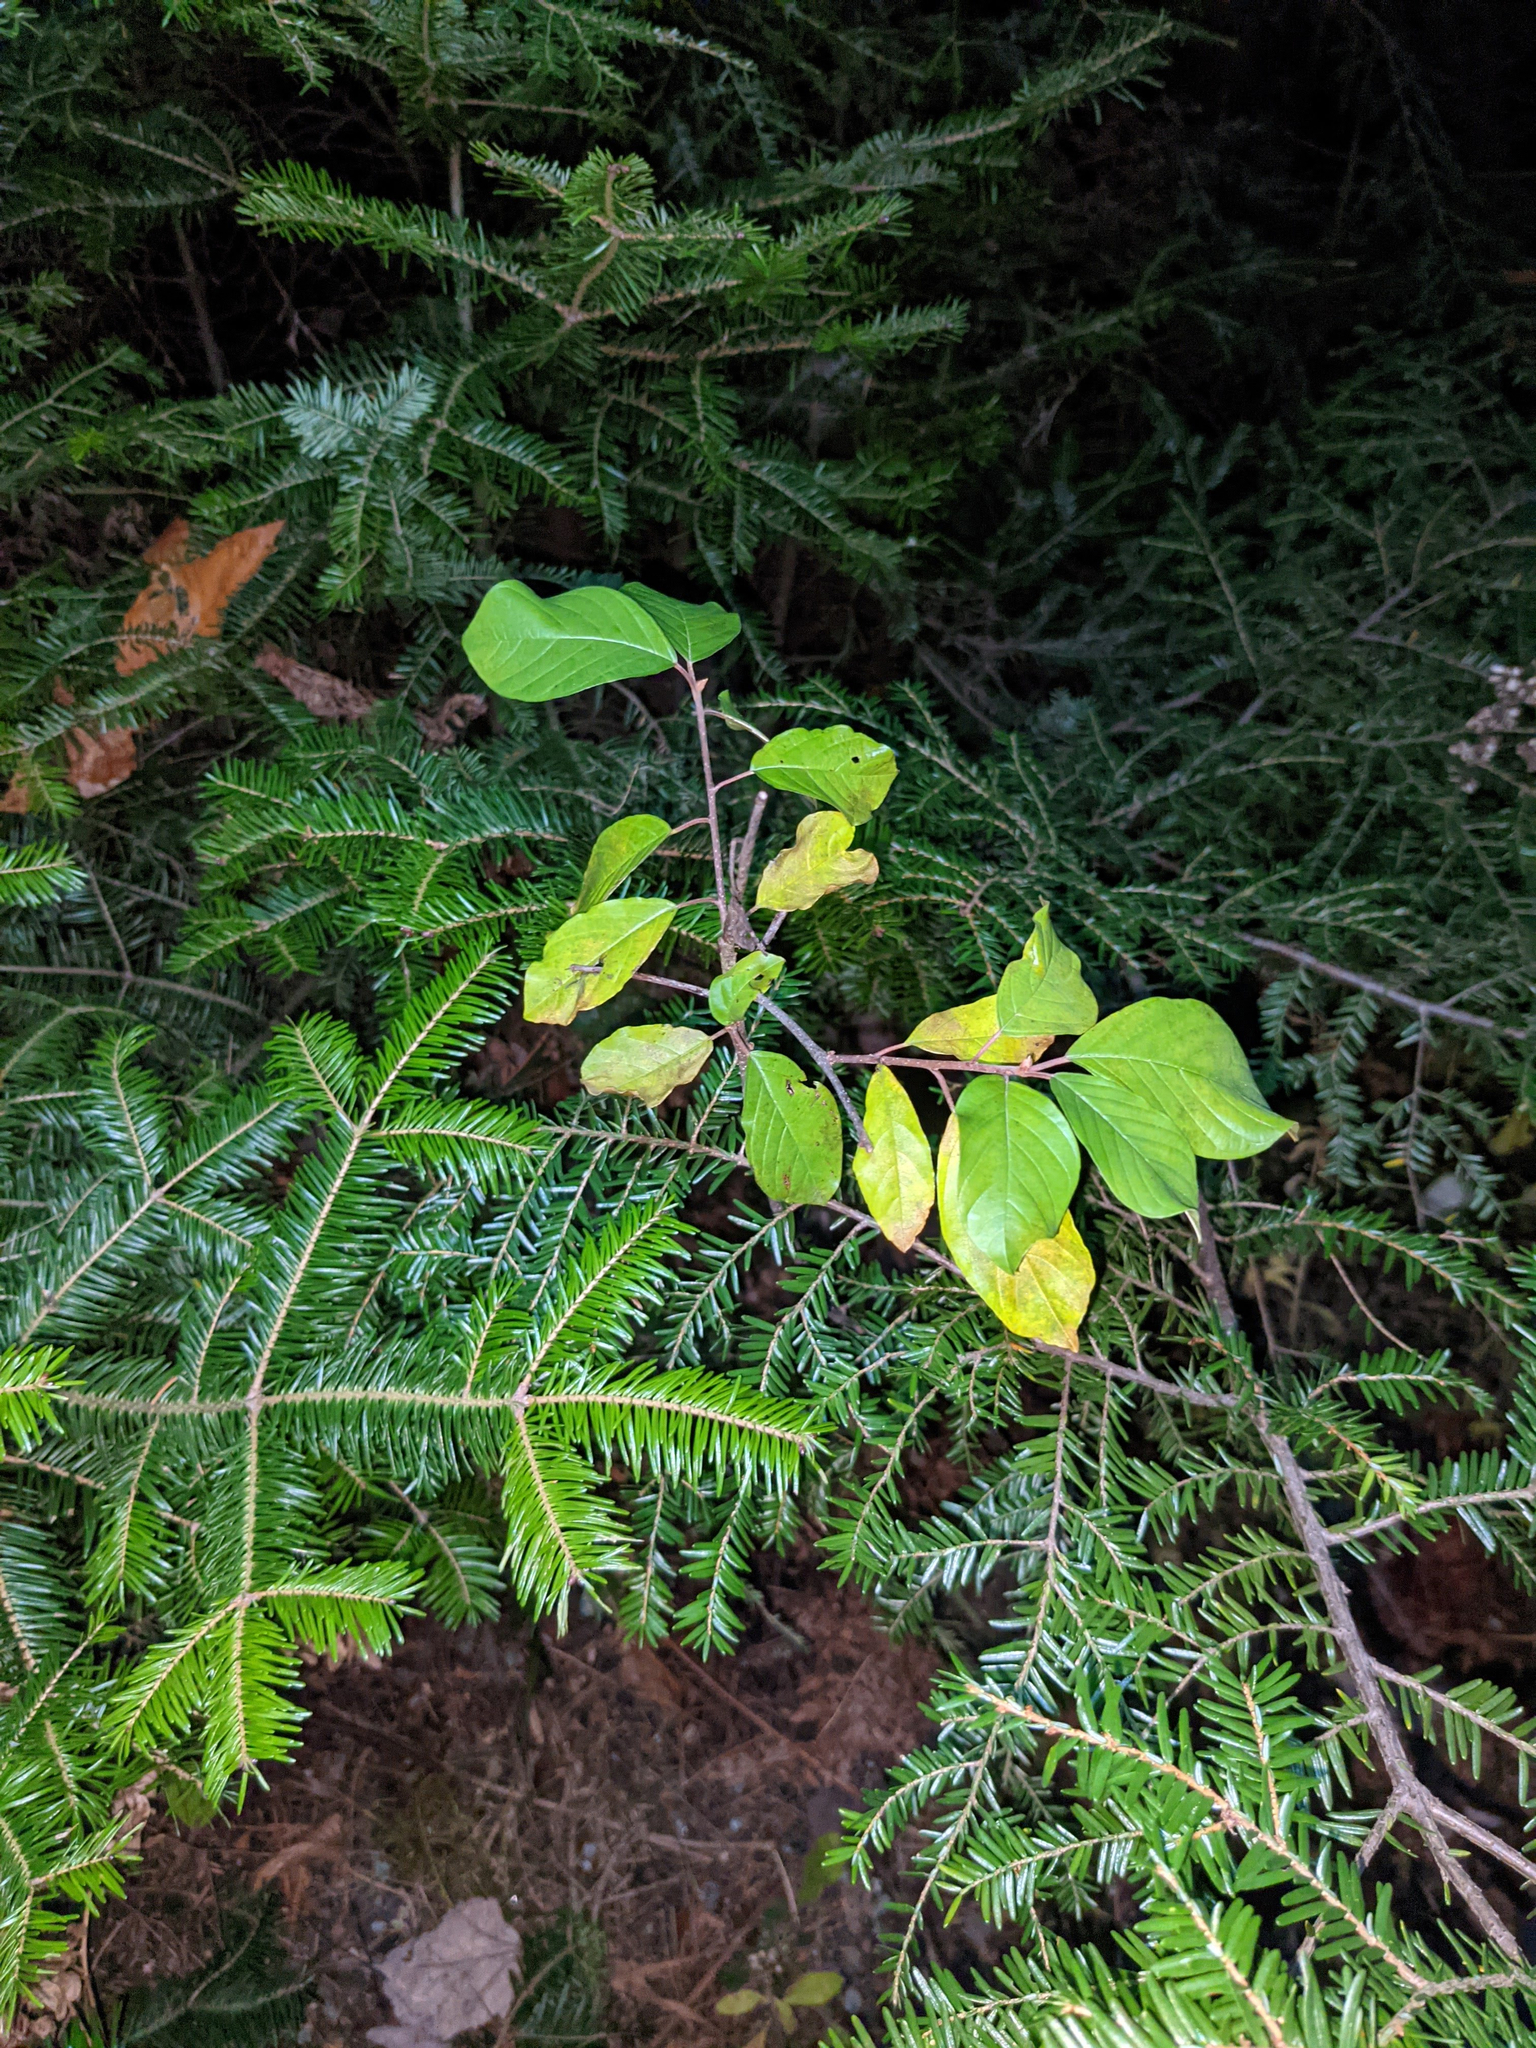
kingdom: Plantae
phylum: Tracheophyta
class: Magnoliopsida
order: Rosales
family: Rhamnaceae
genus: Frangula
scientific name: Frangula alnus
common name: Alder buckthorn
